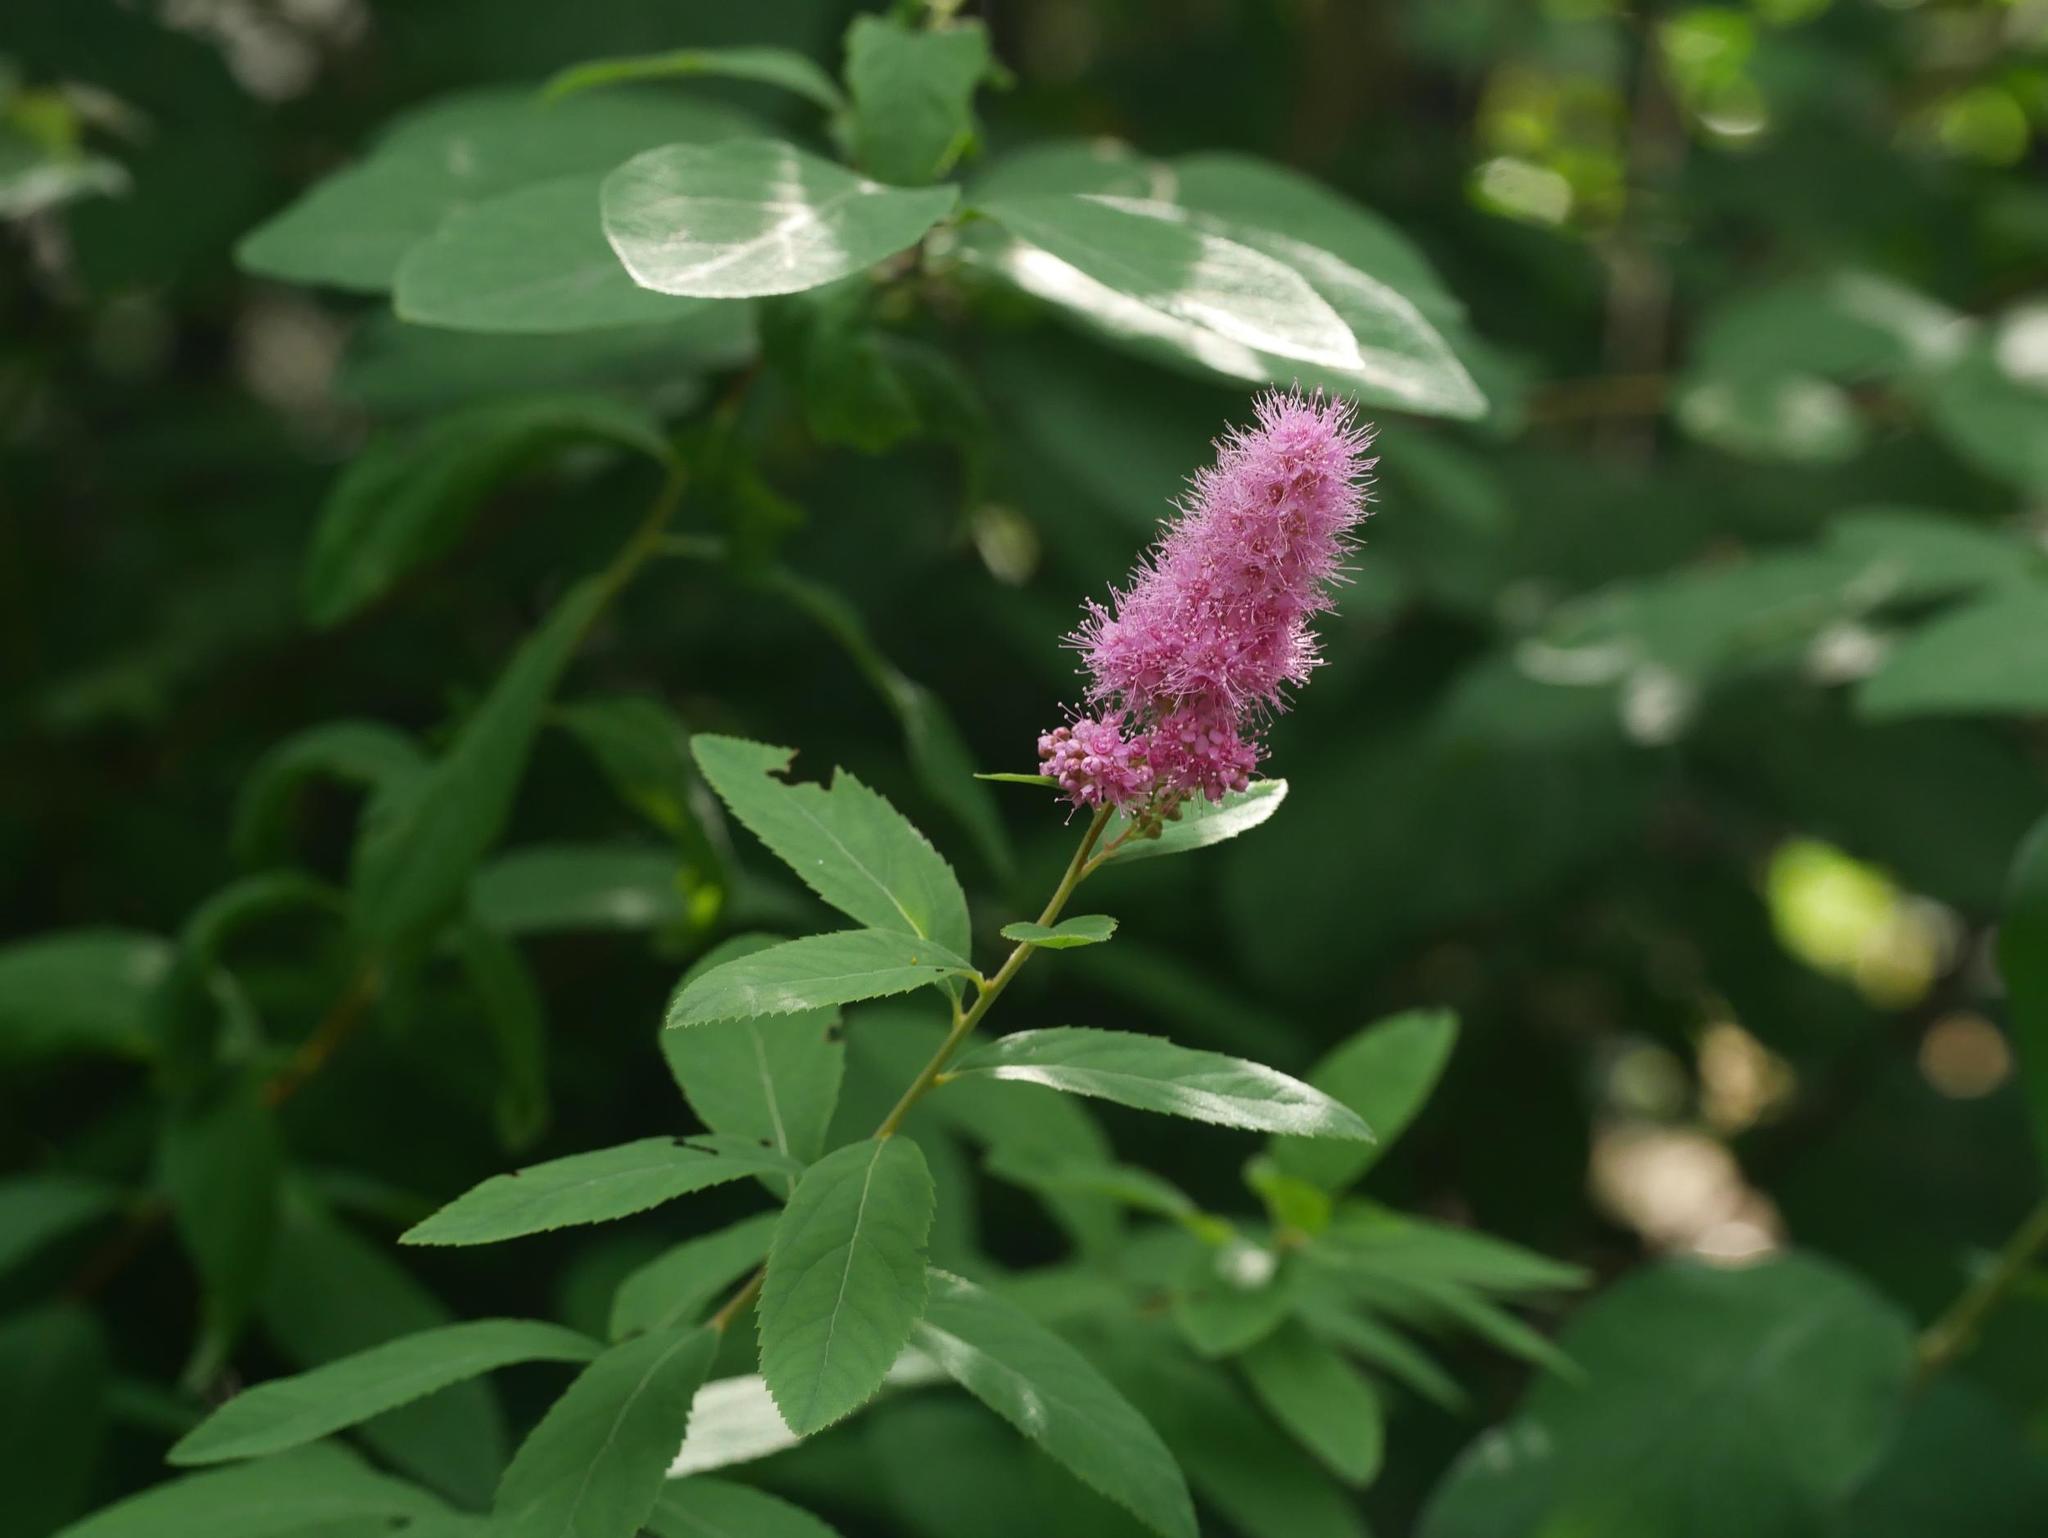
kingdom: Plantae
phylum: Tracheophyta
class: Magnoliopsida
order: Rosales
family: Rosaceae
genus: Spiraea
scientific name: Spiraea douglasii
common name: Steeplebush
